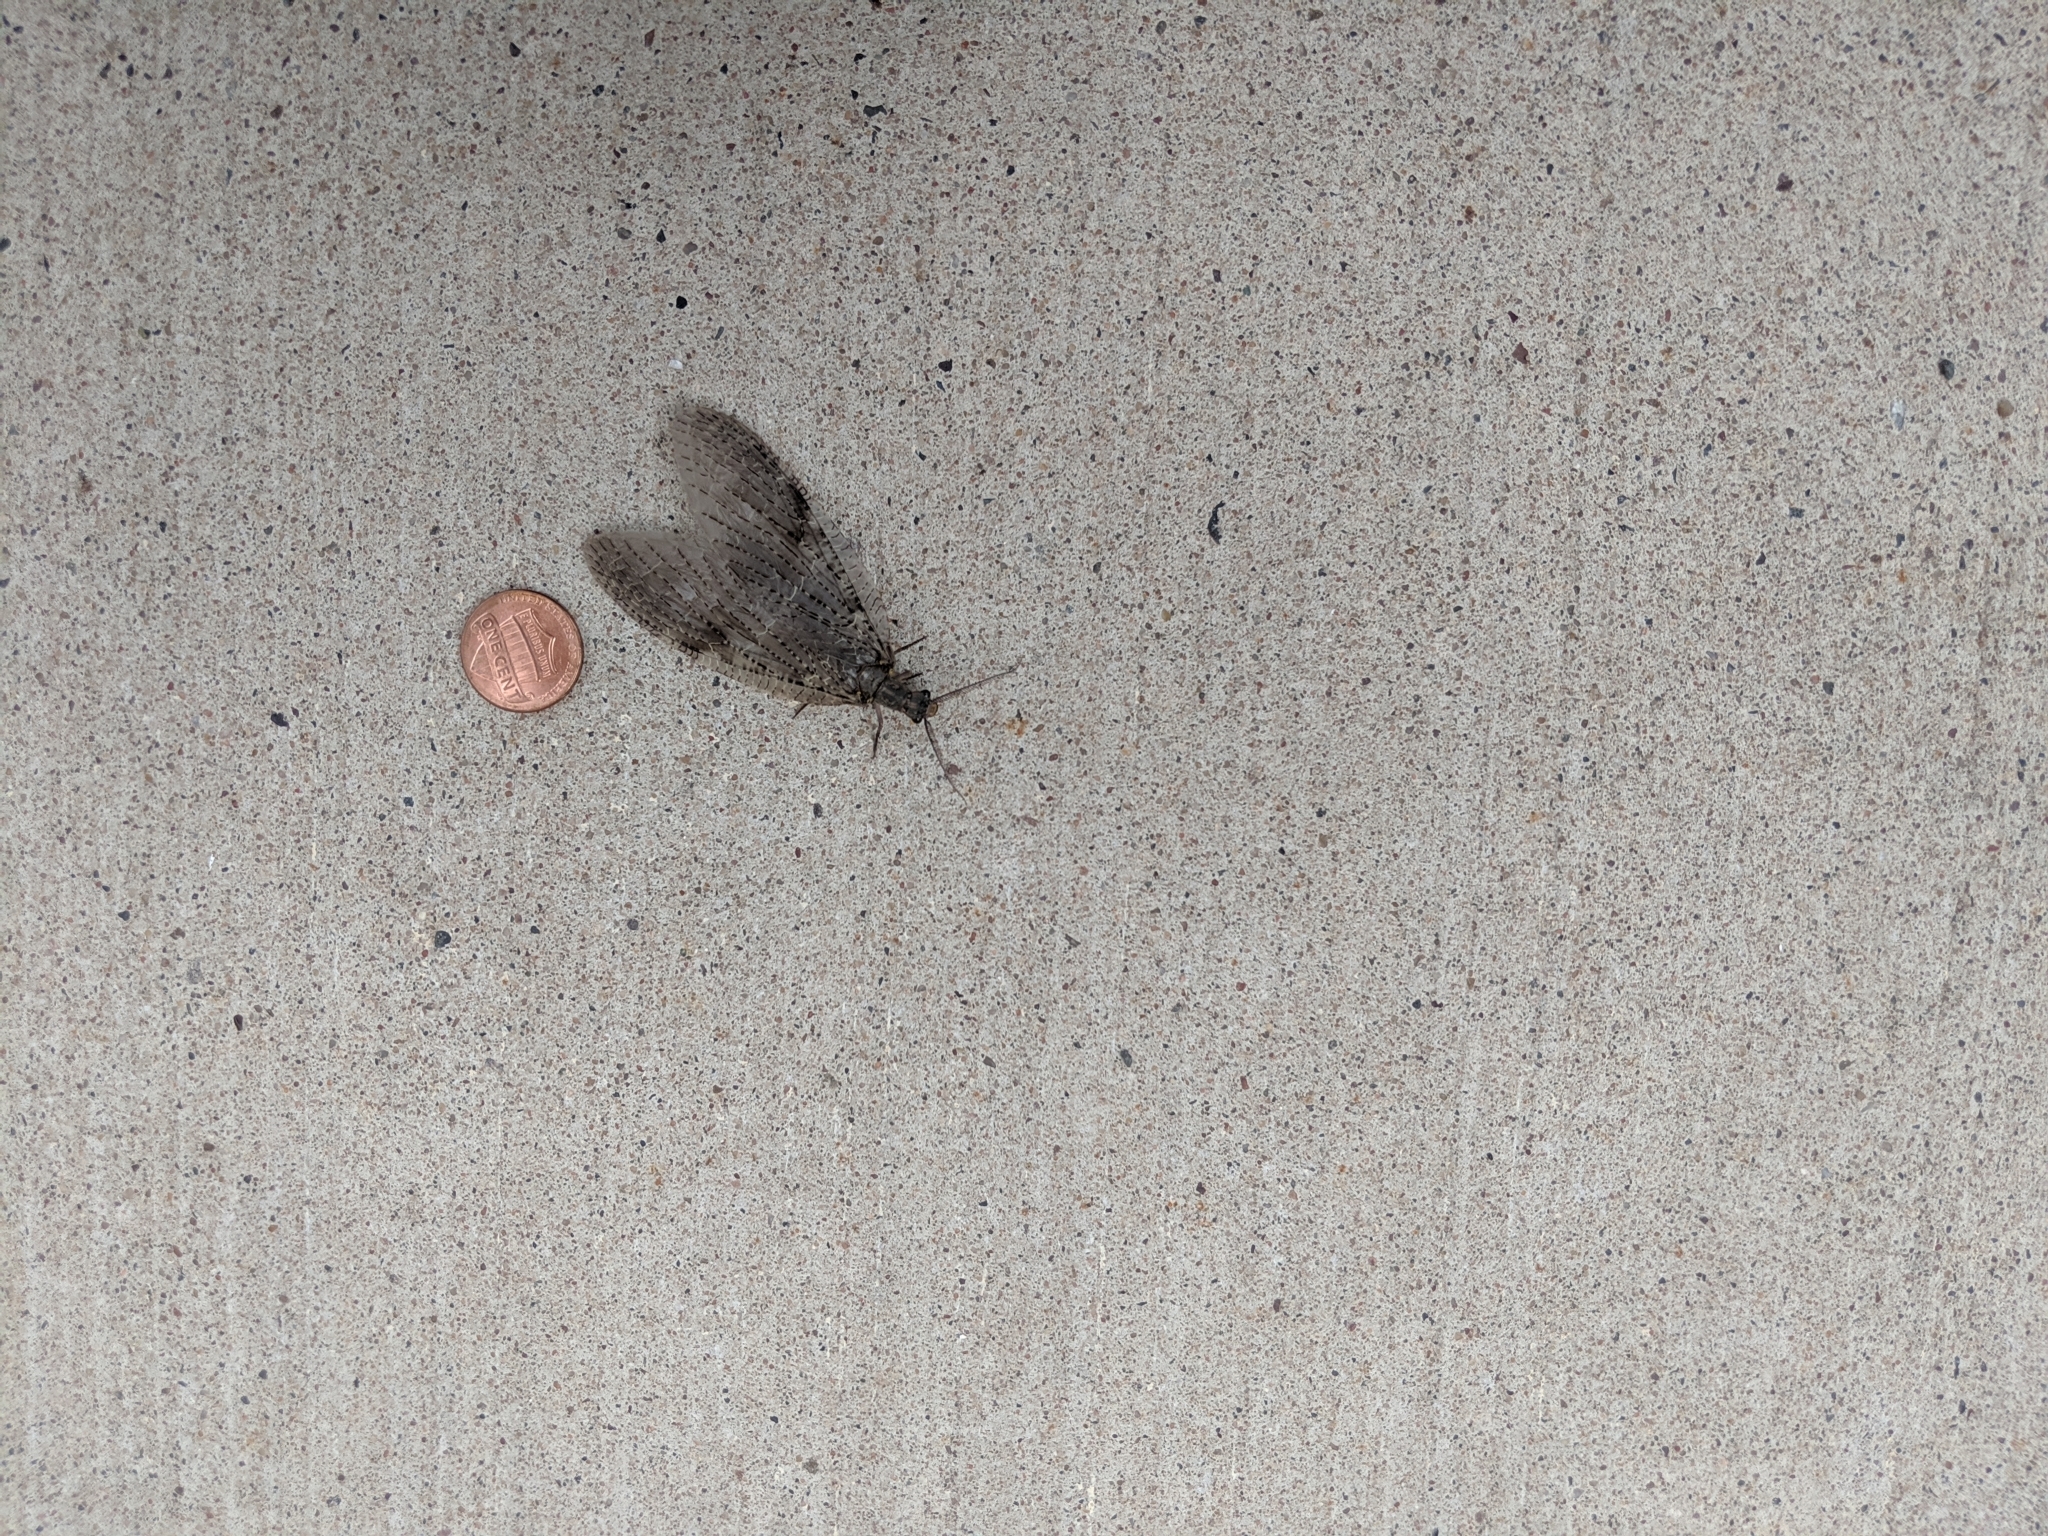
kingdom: Animalia
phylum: Arthropoda
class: Insecta
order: Megaloptera
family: Corydalidae
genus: Chauliodes
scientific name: Chauliodes pectinicornis
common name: Summer fishfly
